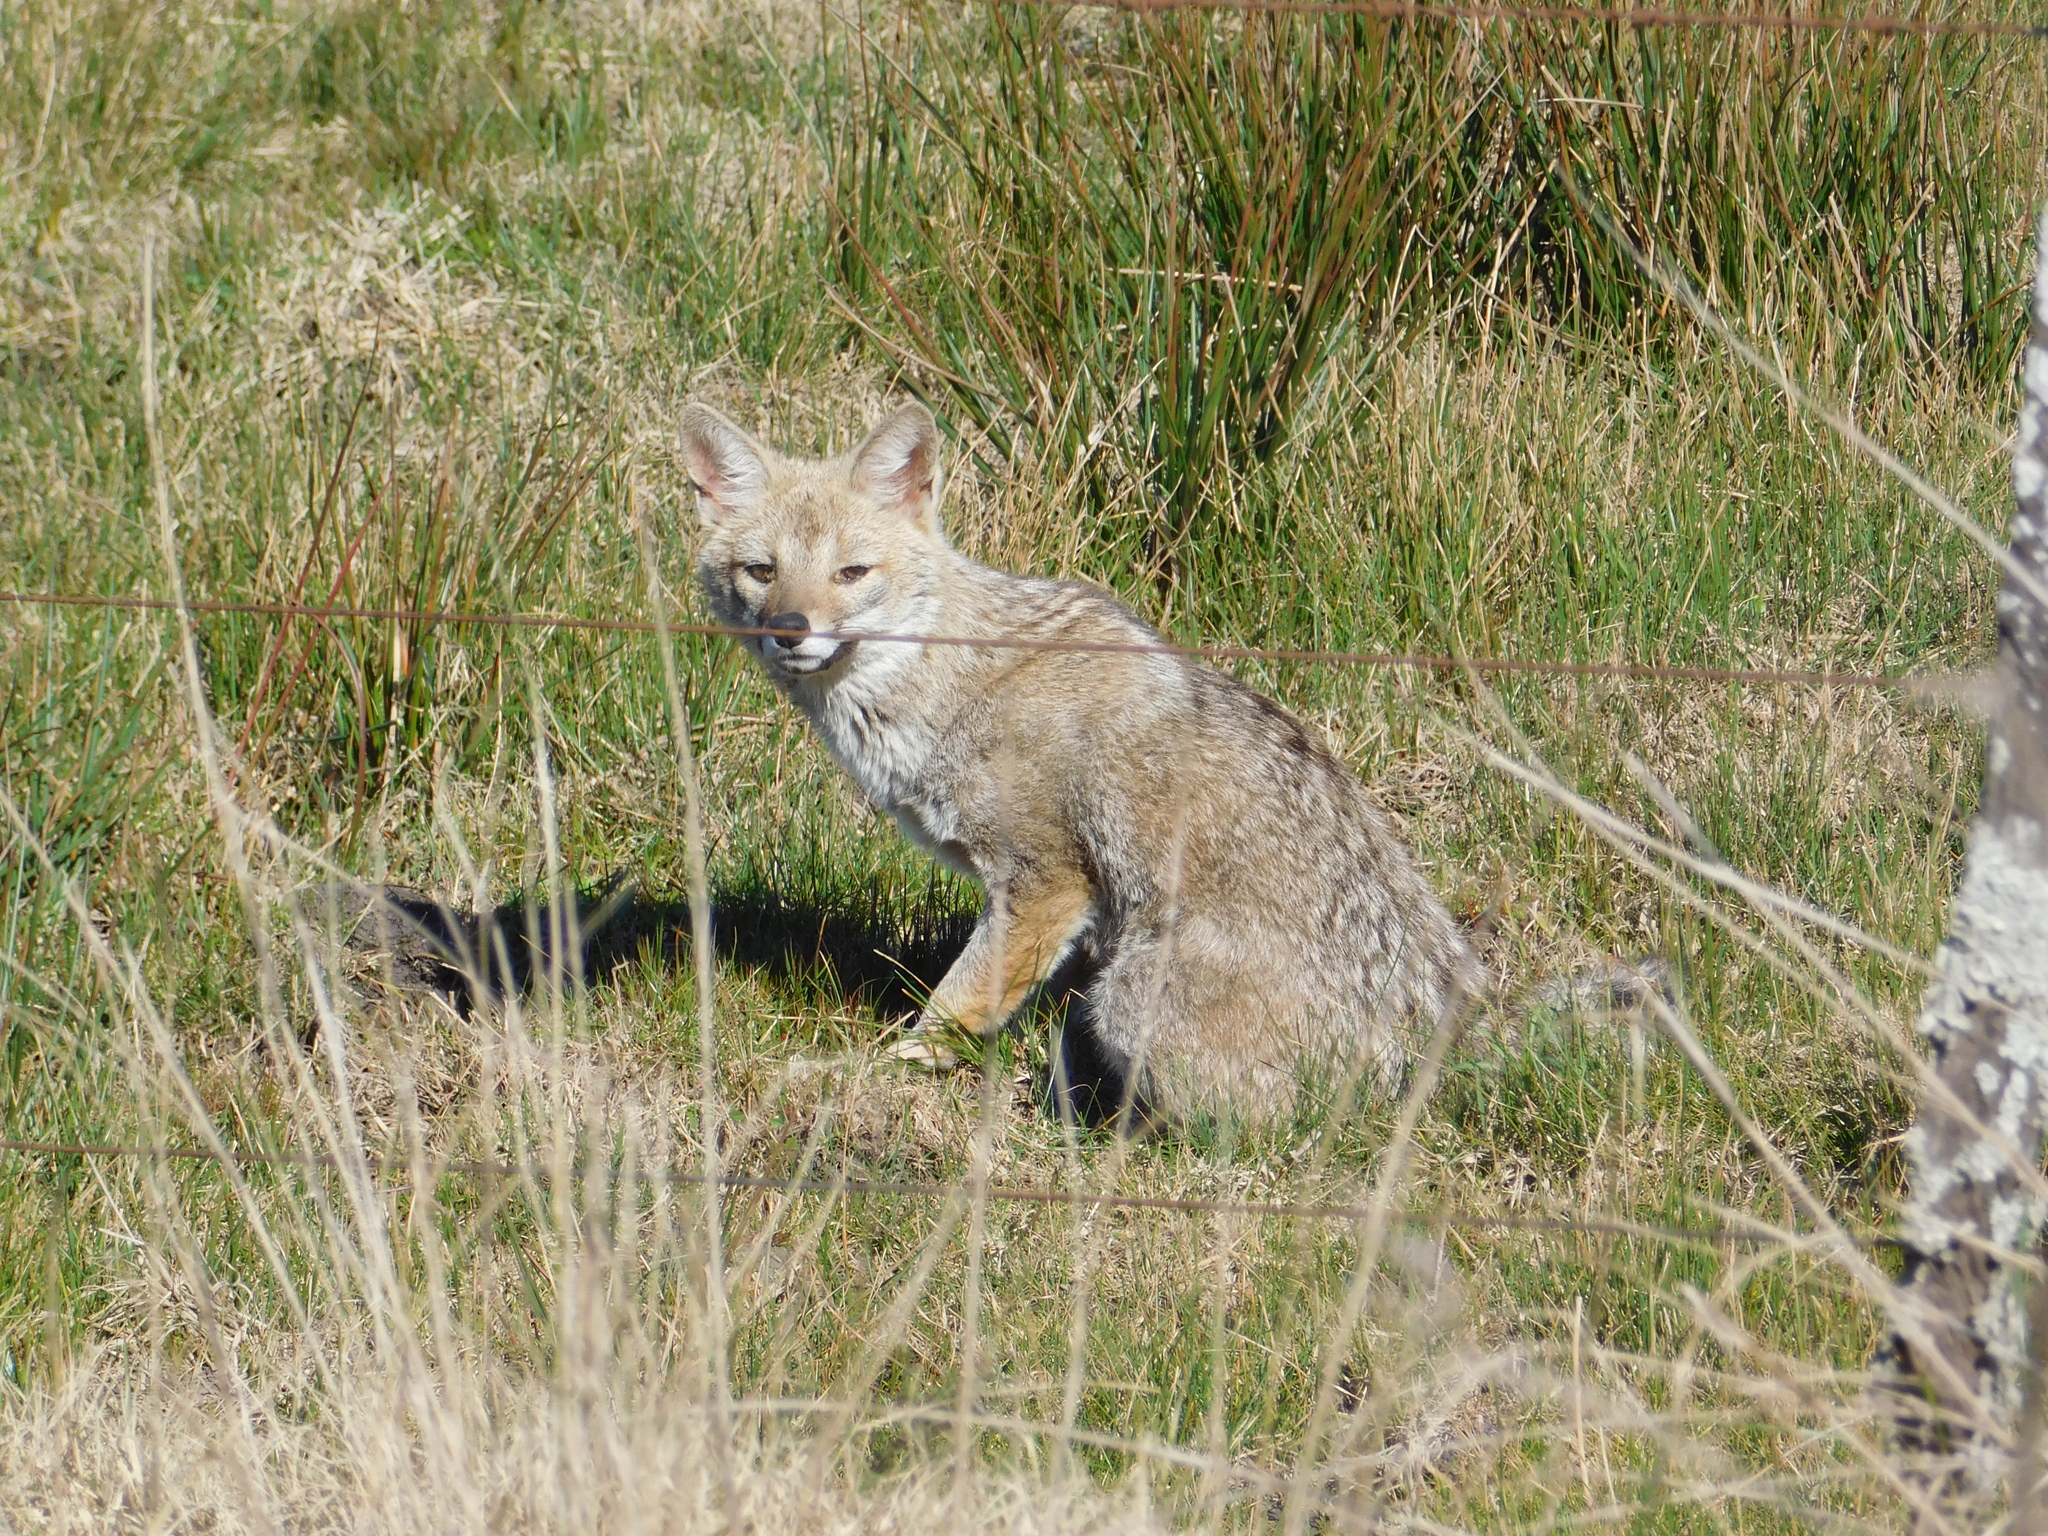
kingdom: Animalia
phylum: Chordata
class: Mammalia
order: Carnivora
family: Canidae
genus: Lycalopex
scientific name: Lycalopex gymnocercus
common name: Pampas fox
